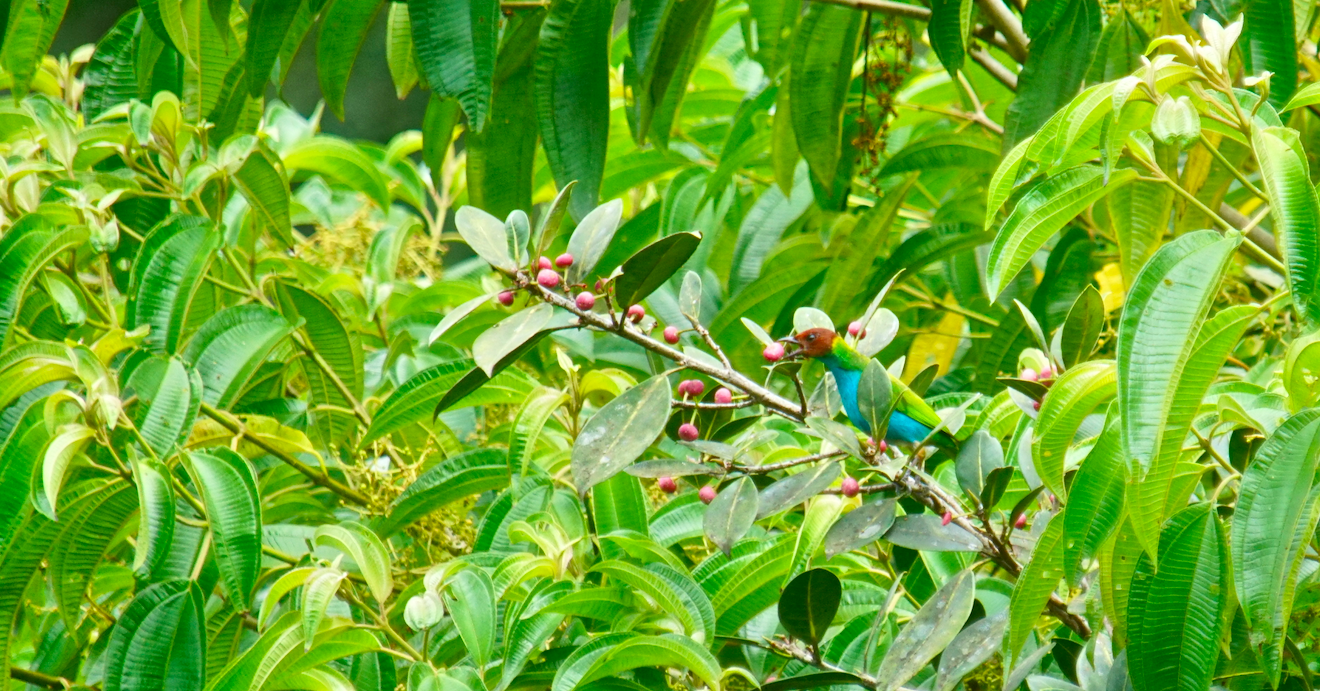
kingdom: Animalia
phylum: Chordata
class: Aves
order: Passeriformes
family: Thraupidae
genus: Tangara
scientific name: Tangara gyrola
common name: Bay-headed tanager
